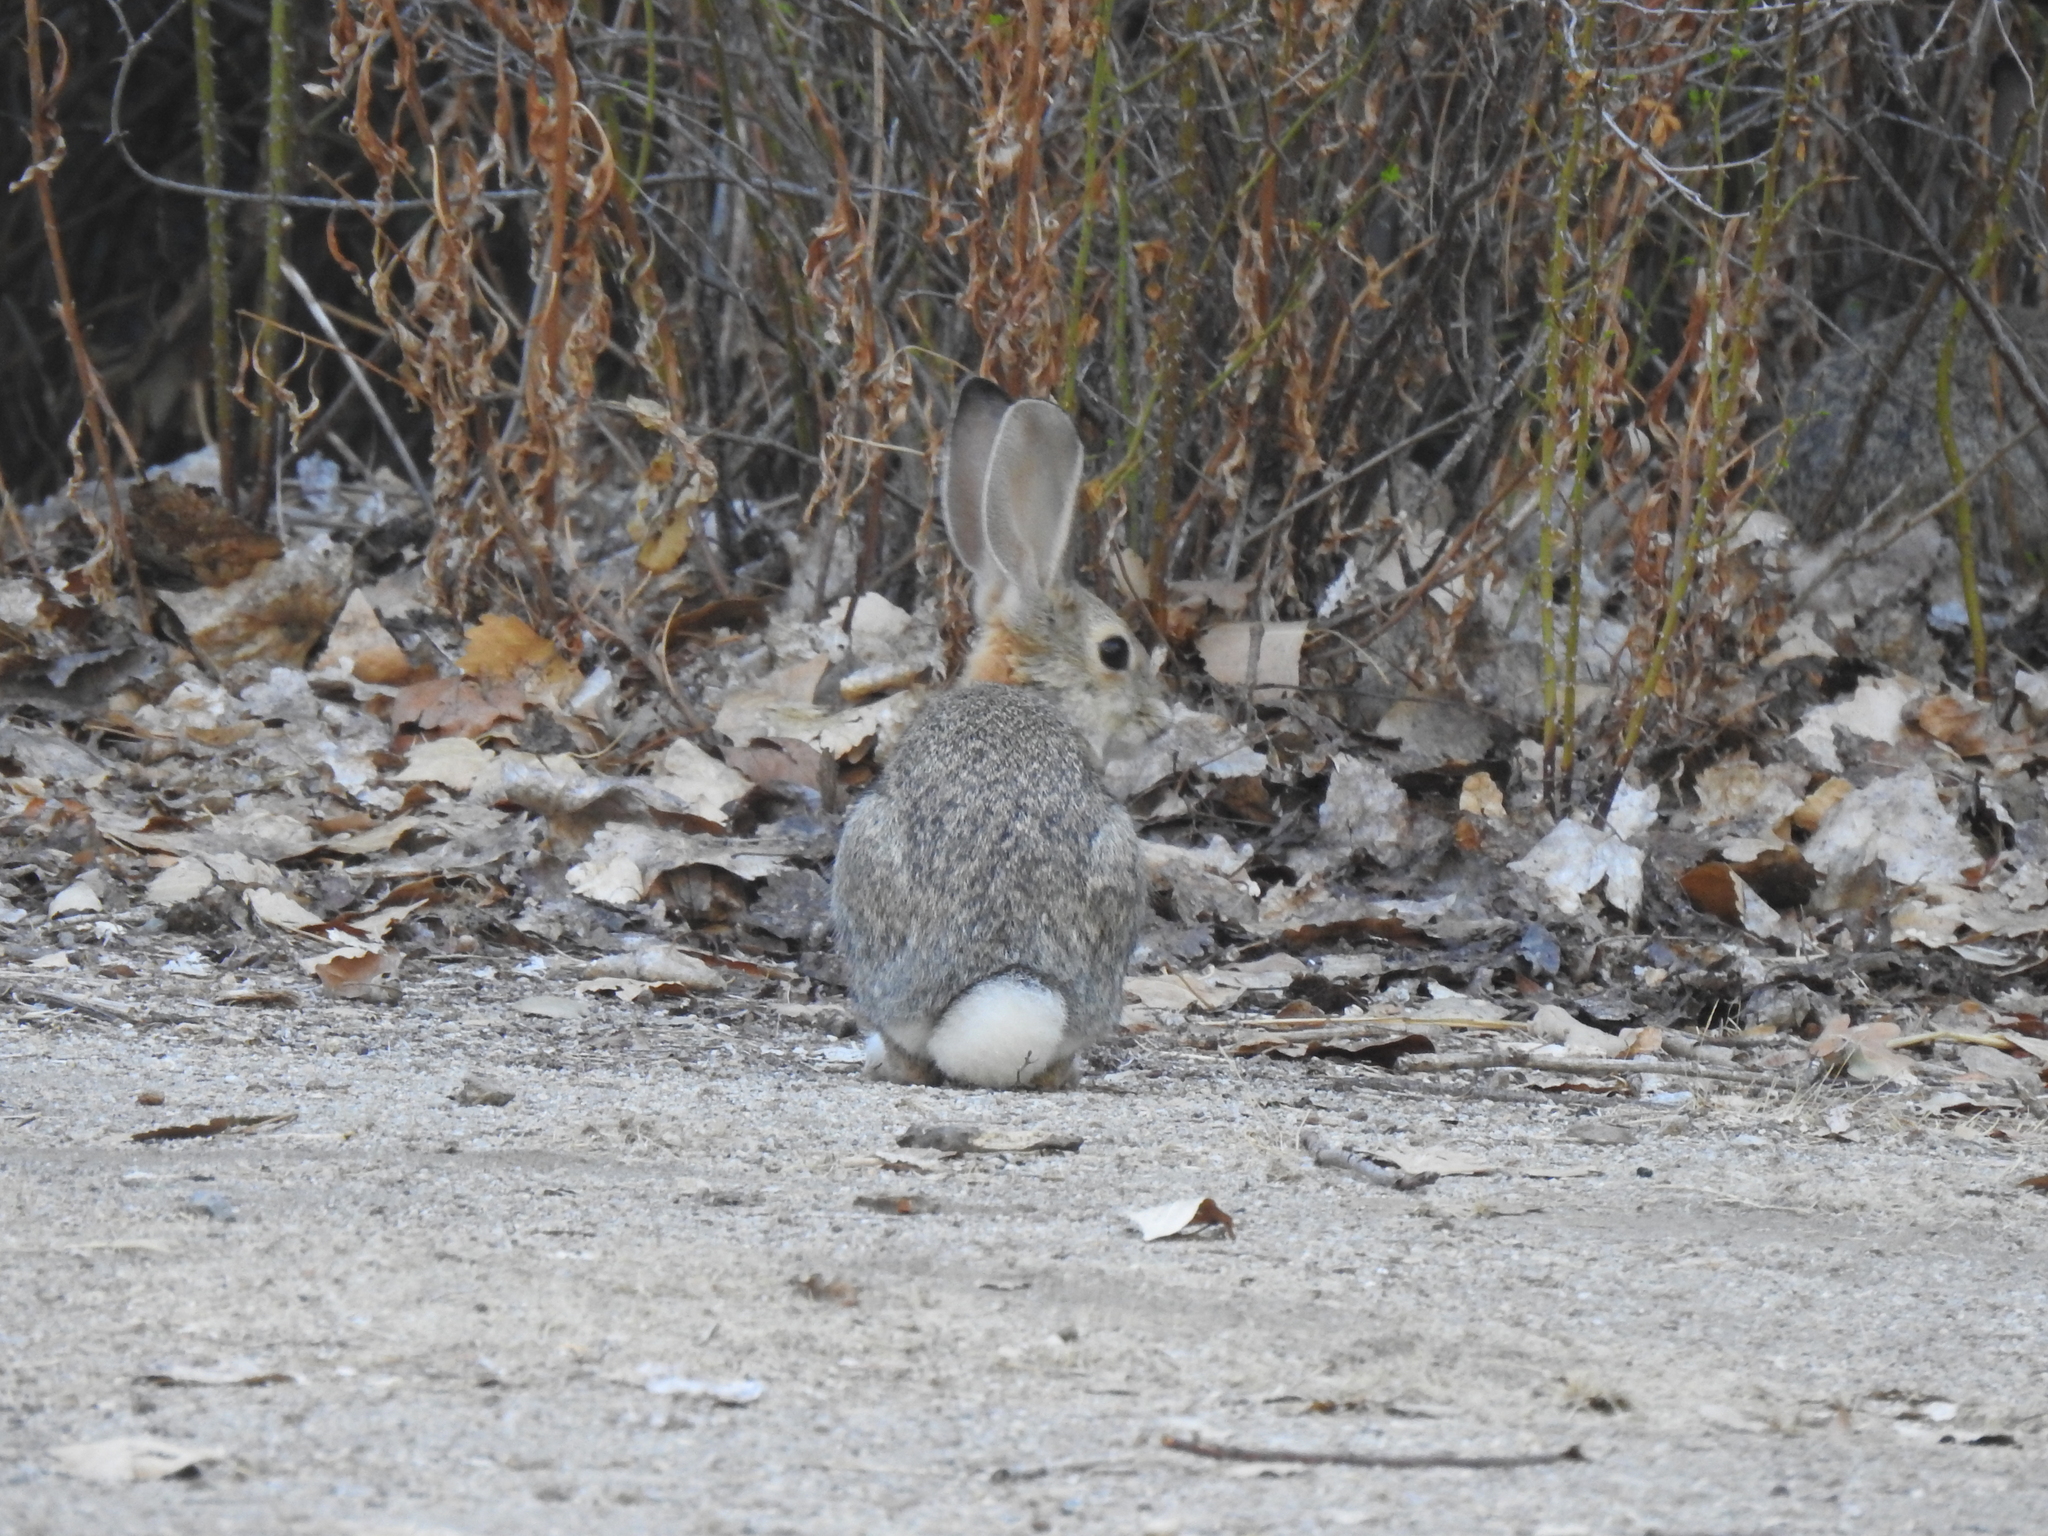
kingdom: Animalia
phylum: Chordata
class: Mammalia
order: Lagomorpha
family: Leporidae
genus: Sylvilagus
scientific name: Sylvilagus audubonii
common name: Desert cottontail
